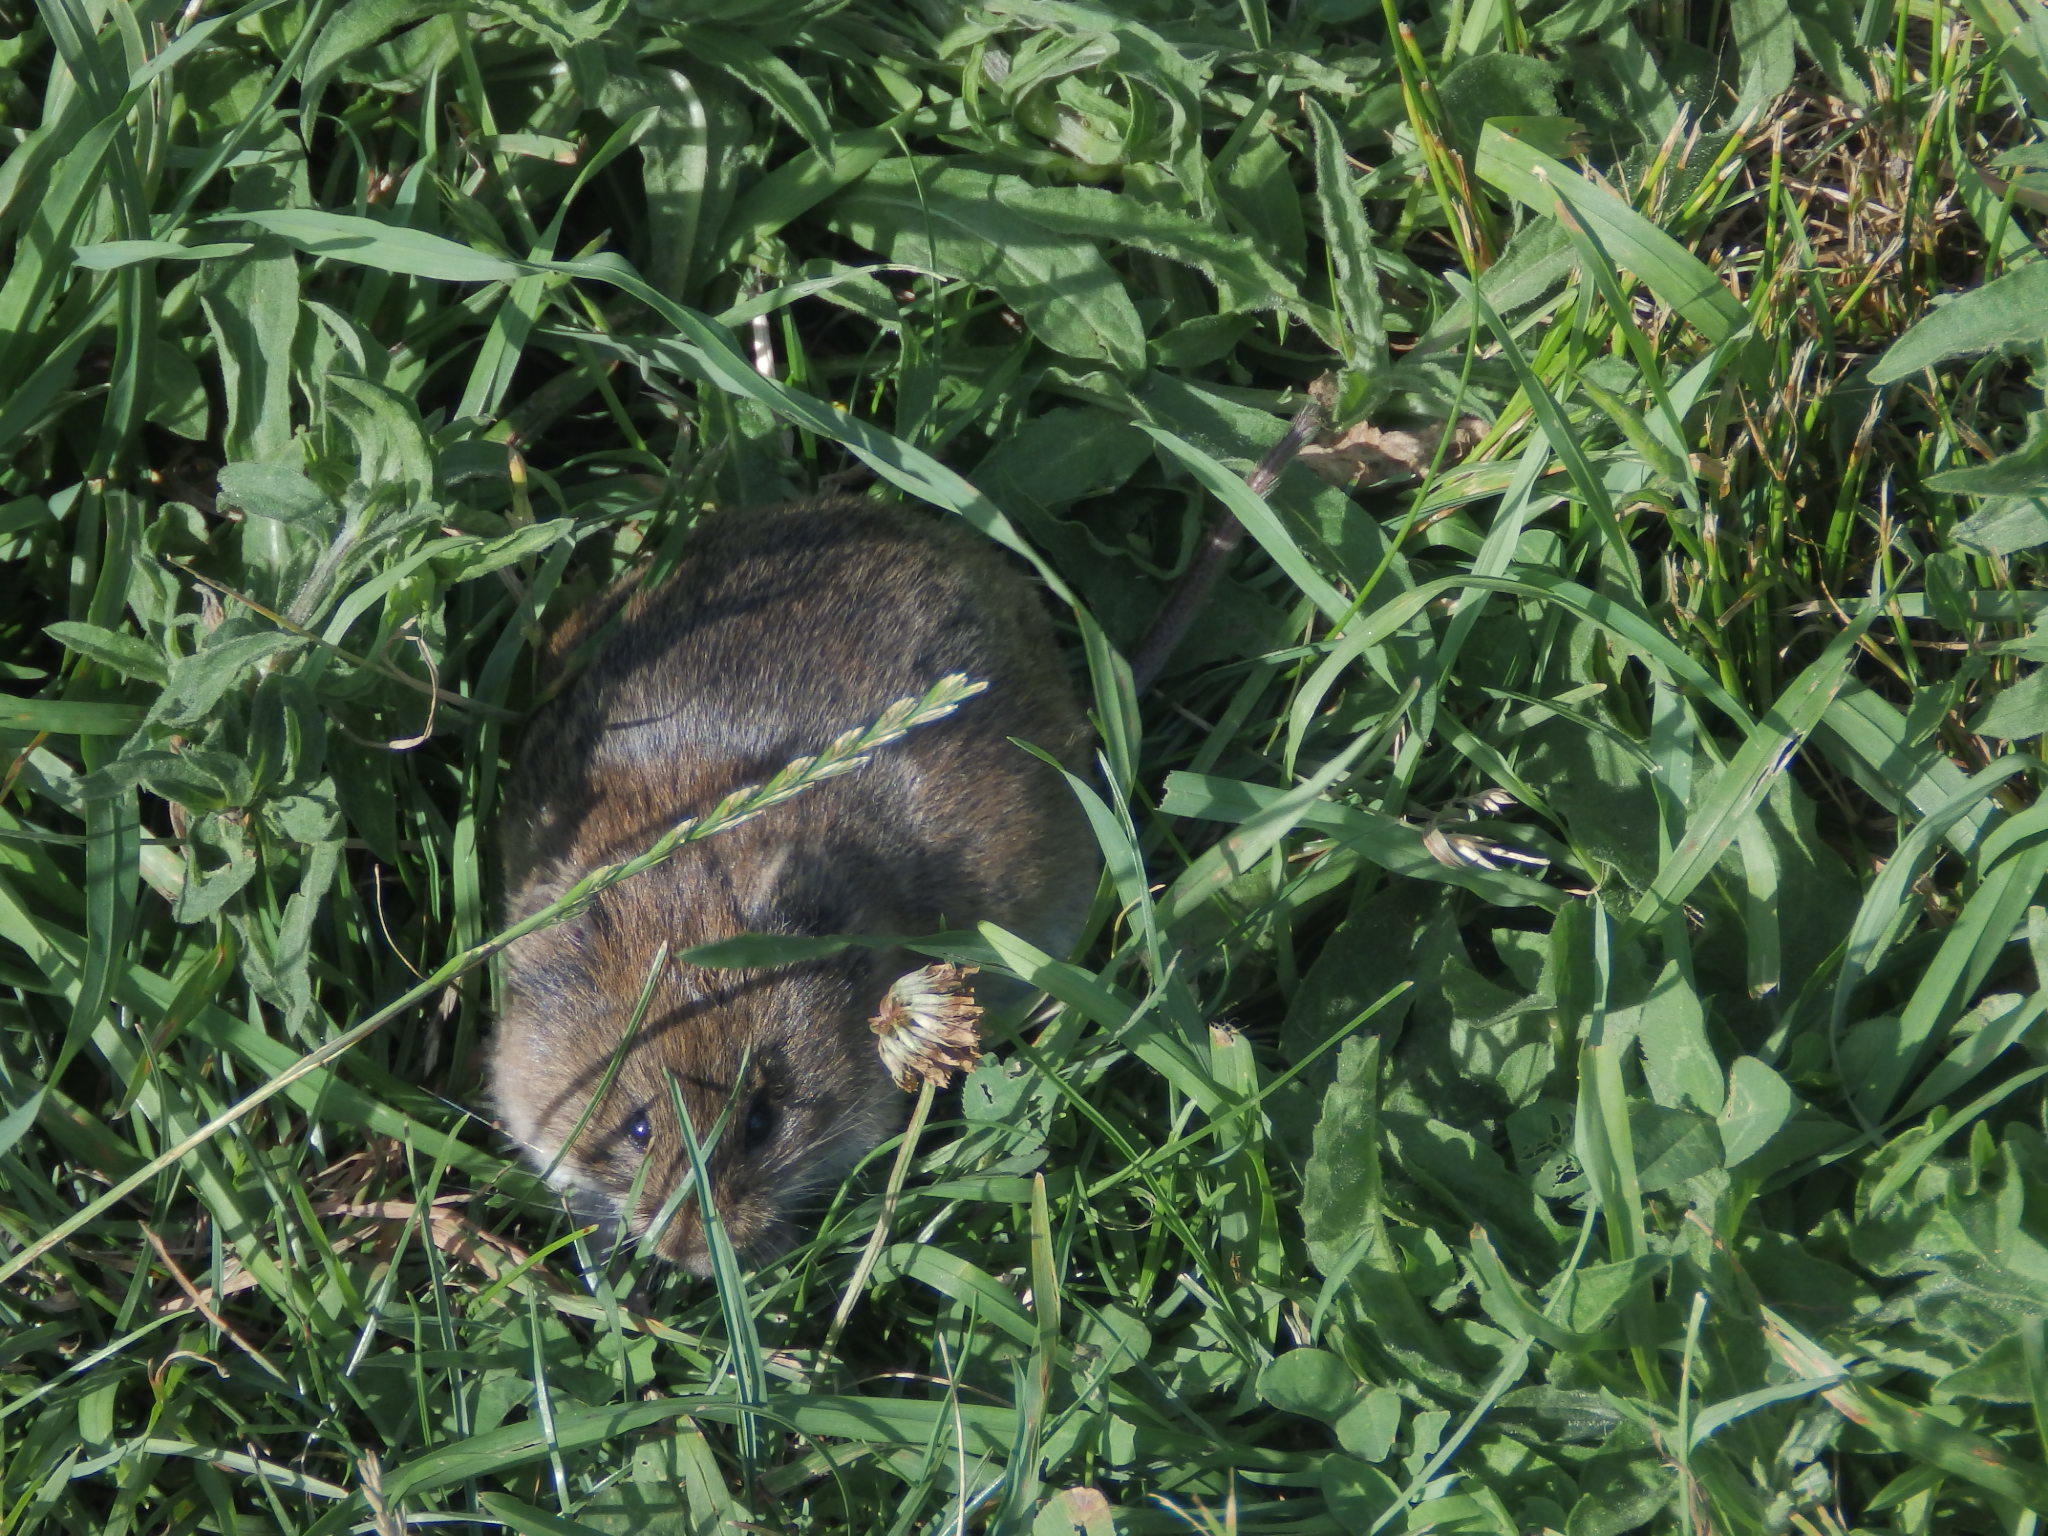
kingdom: Animalia
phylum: Chordata
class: Mammalia
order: Rodentia
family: Cricetidae
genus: Microtus
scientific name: Microtus pennsylvanicus
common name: Meadow vole
